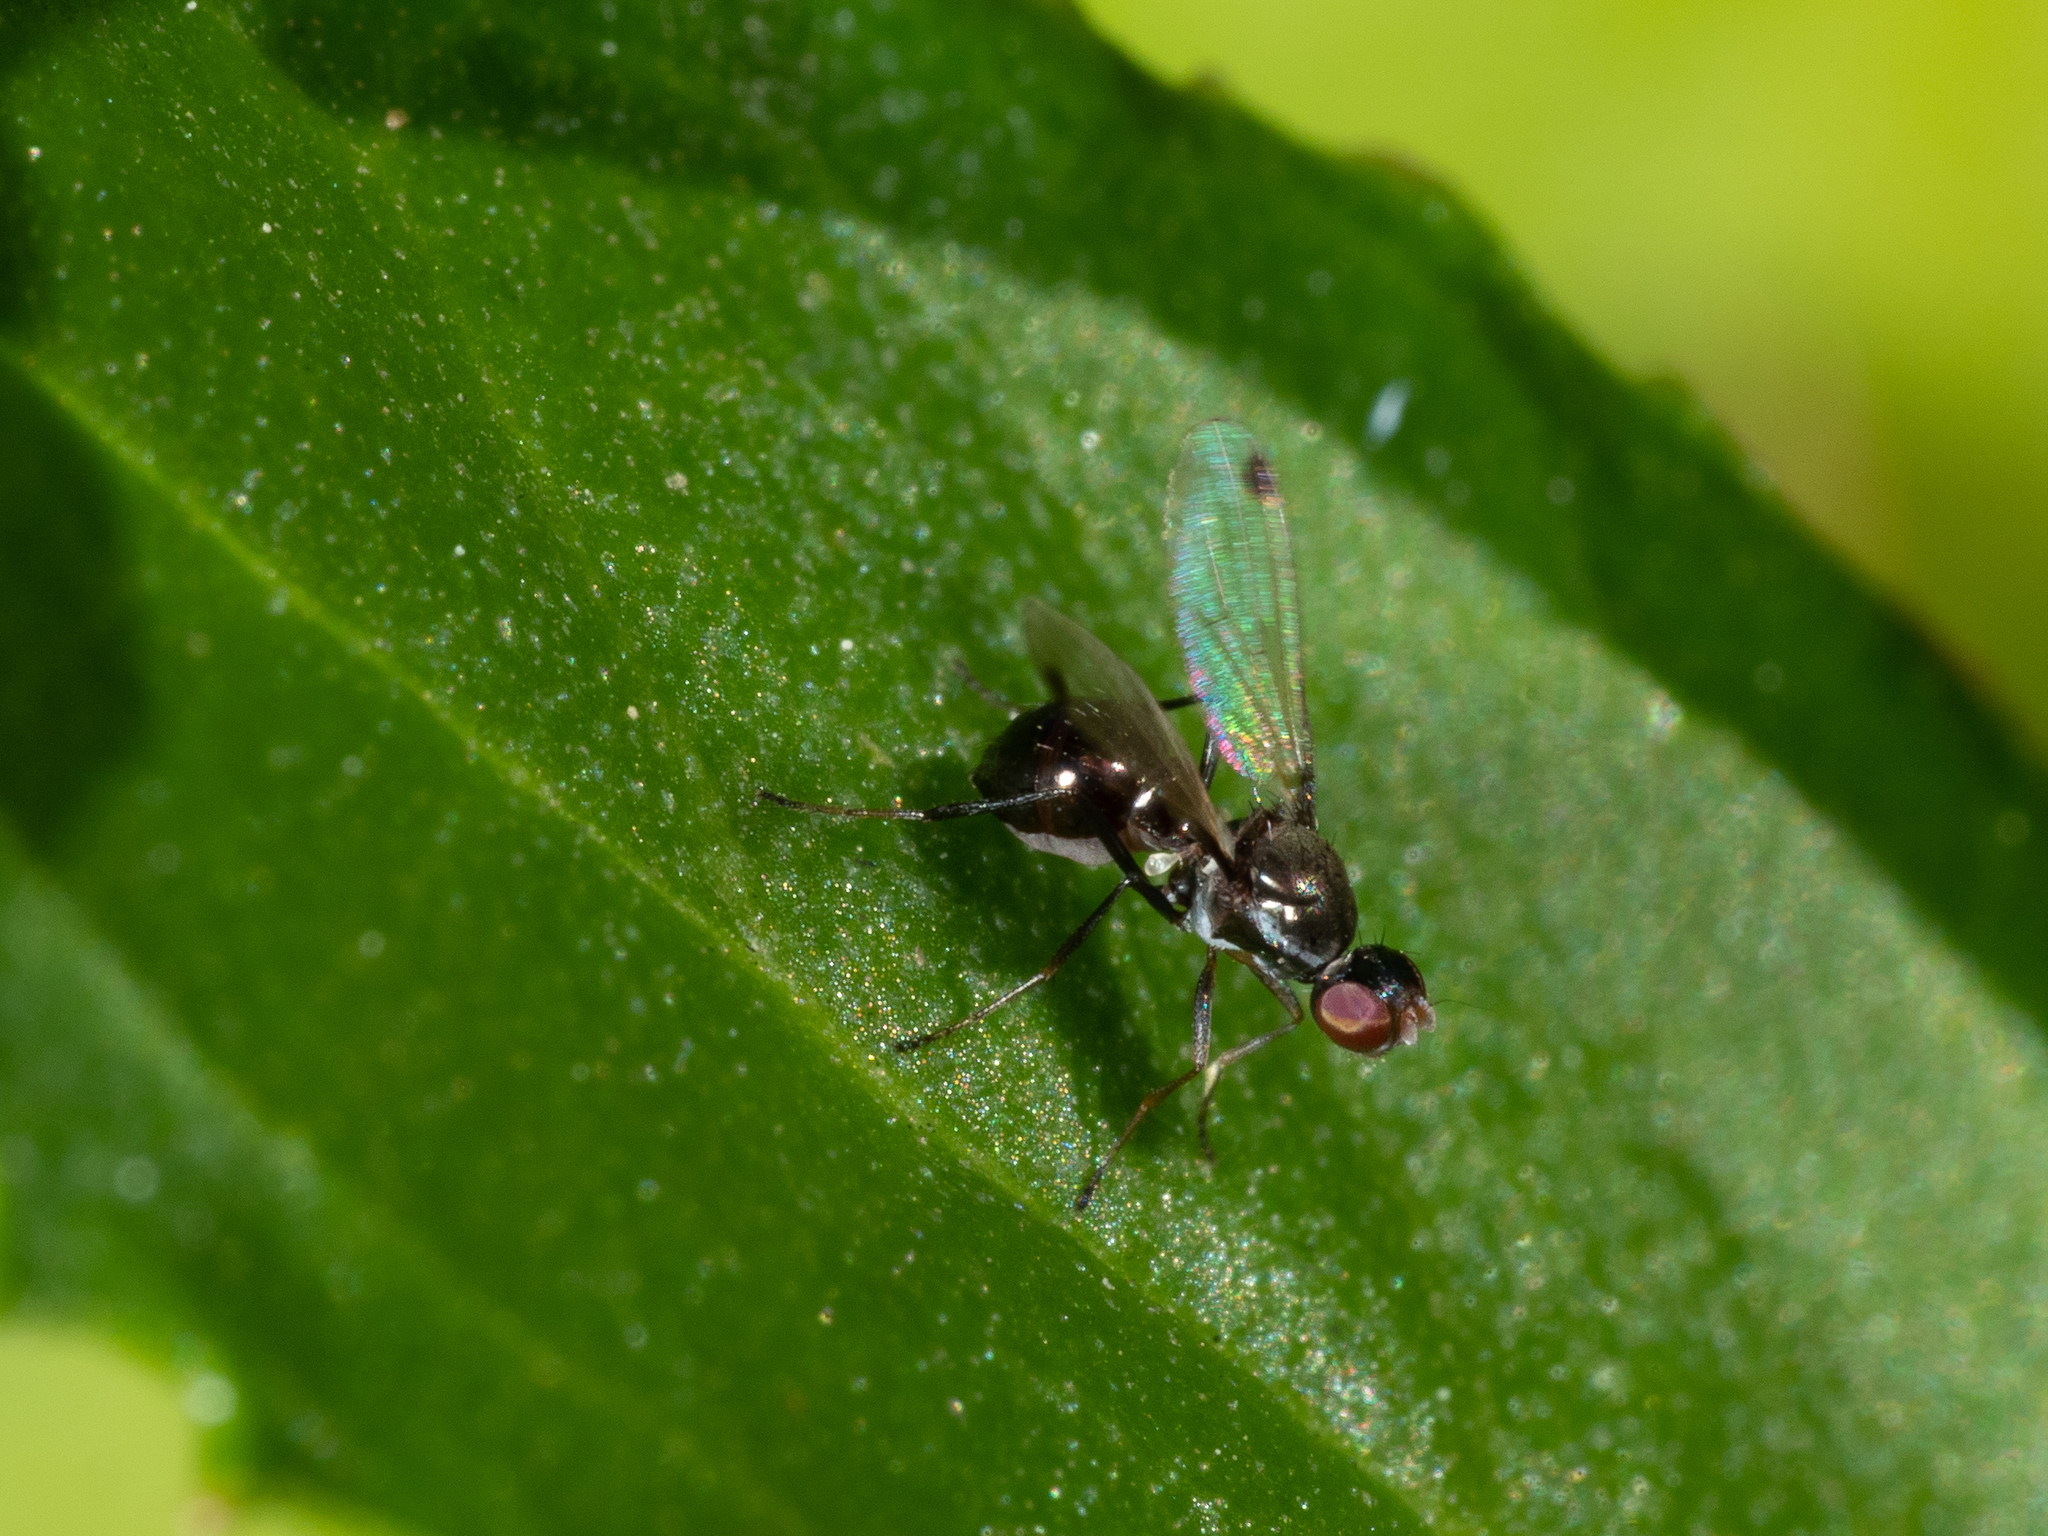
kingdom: Animalia
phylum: Arthropoda
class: Insecta
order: Diptera
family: Sepsidae
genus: Parapalaeosepsis
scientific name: Parapalaeosepsis plebeia
